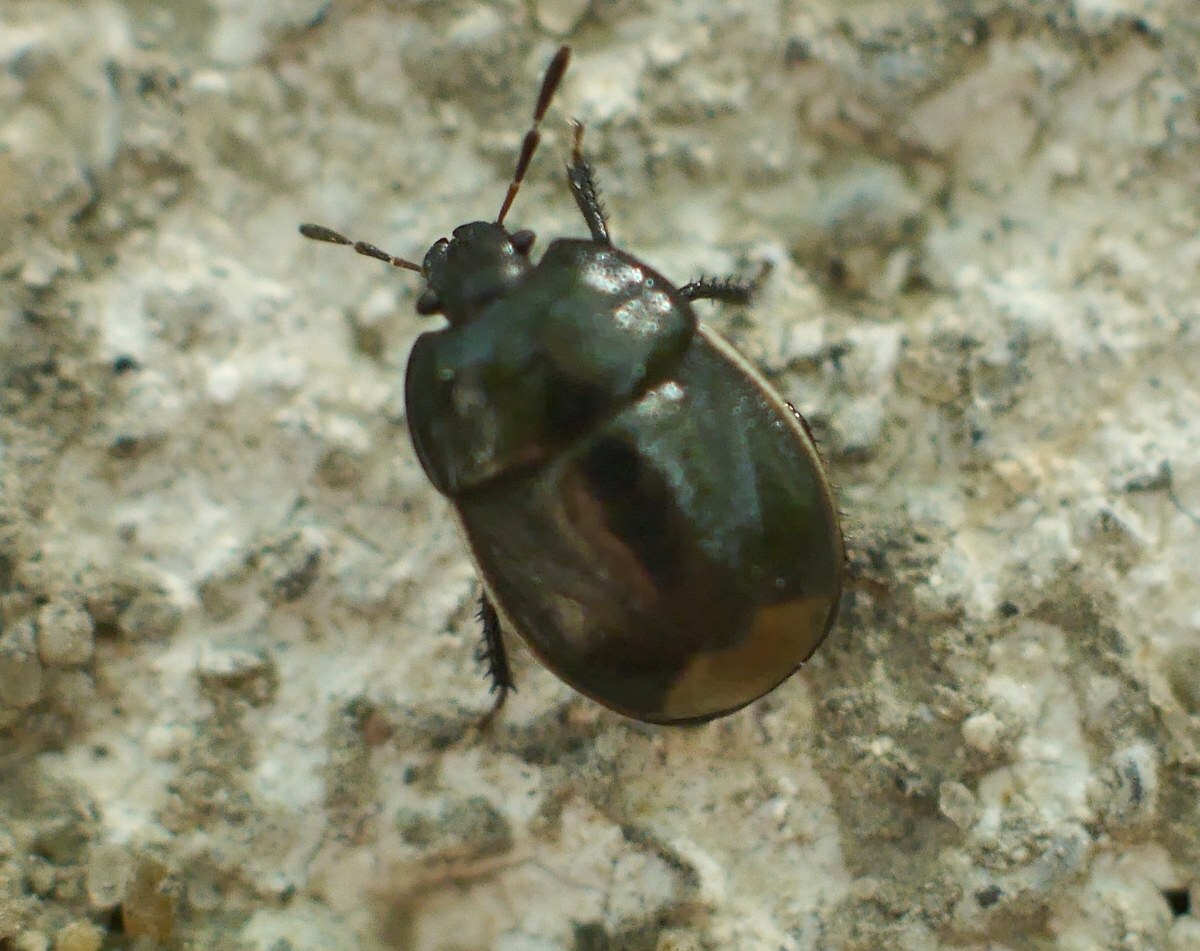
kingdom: Animalia
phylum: Arthropoda
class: Insecta
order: Hemiptera
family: Cydnidae
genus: Legnotus
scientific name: Legnotus limbosus
